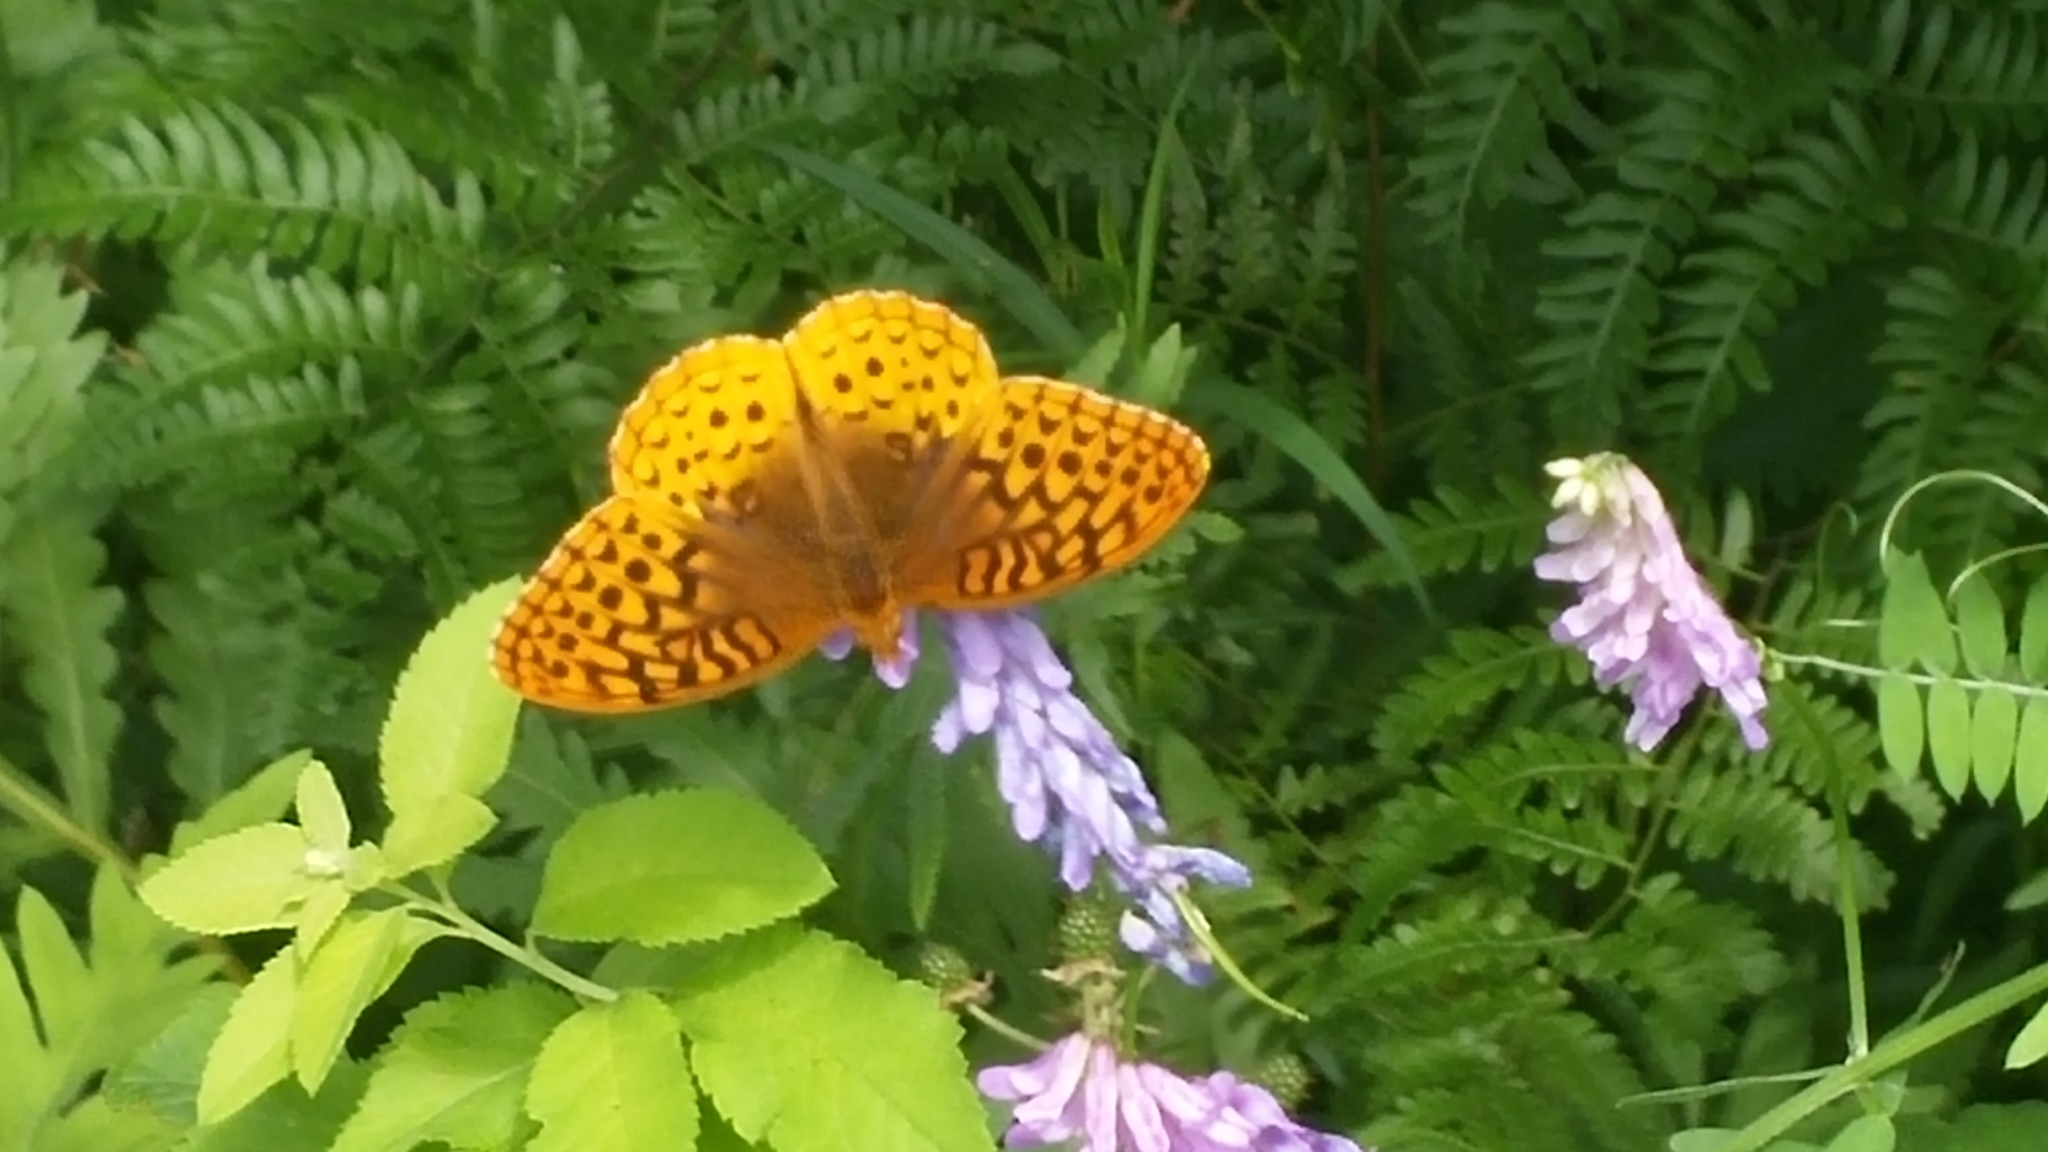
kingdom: Animalia
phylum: Arthropoda
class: Insecta
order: Lepidoptera
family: Nymphalidae
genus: Speyeria
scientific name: Speyeria cybele
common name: Great spangled fritillary
